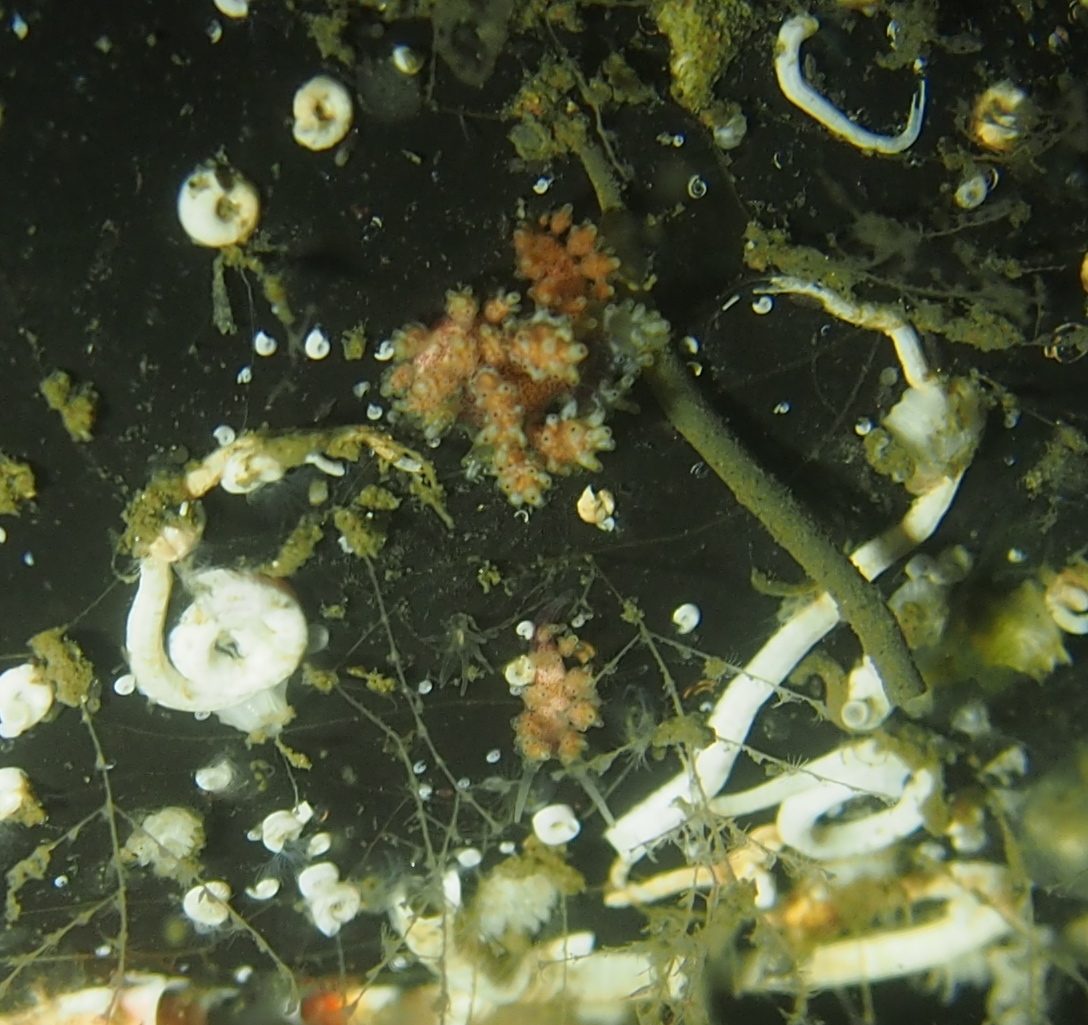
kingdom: Animalia
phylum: Mollusca
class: Gastropoda
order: Nudibranchia
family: Dotidae
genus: Doto
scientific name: Doto maculata
